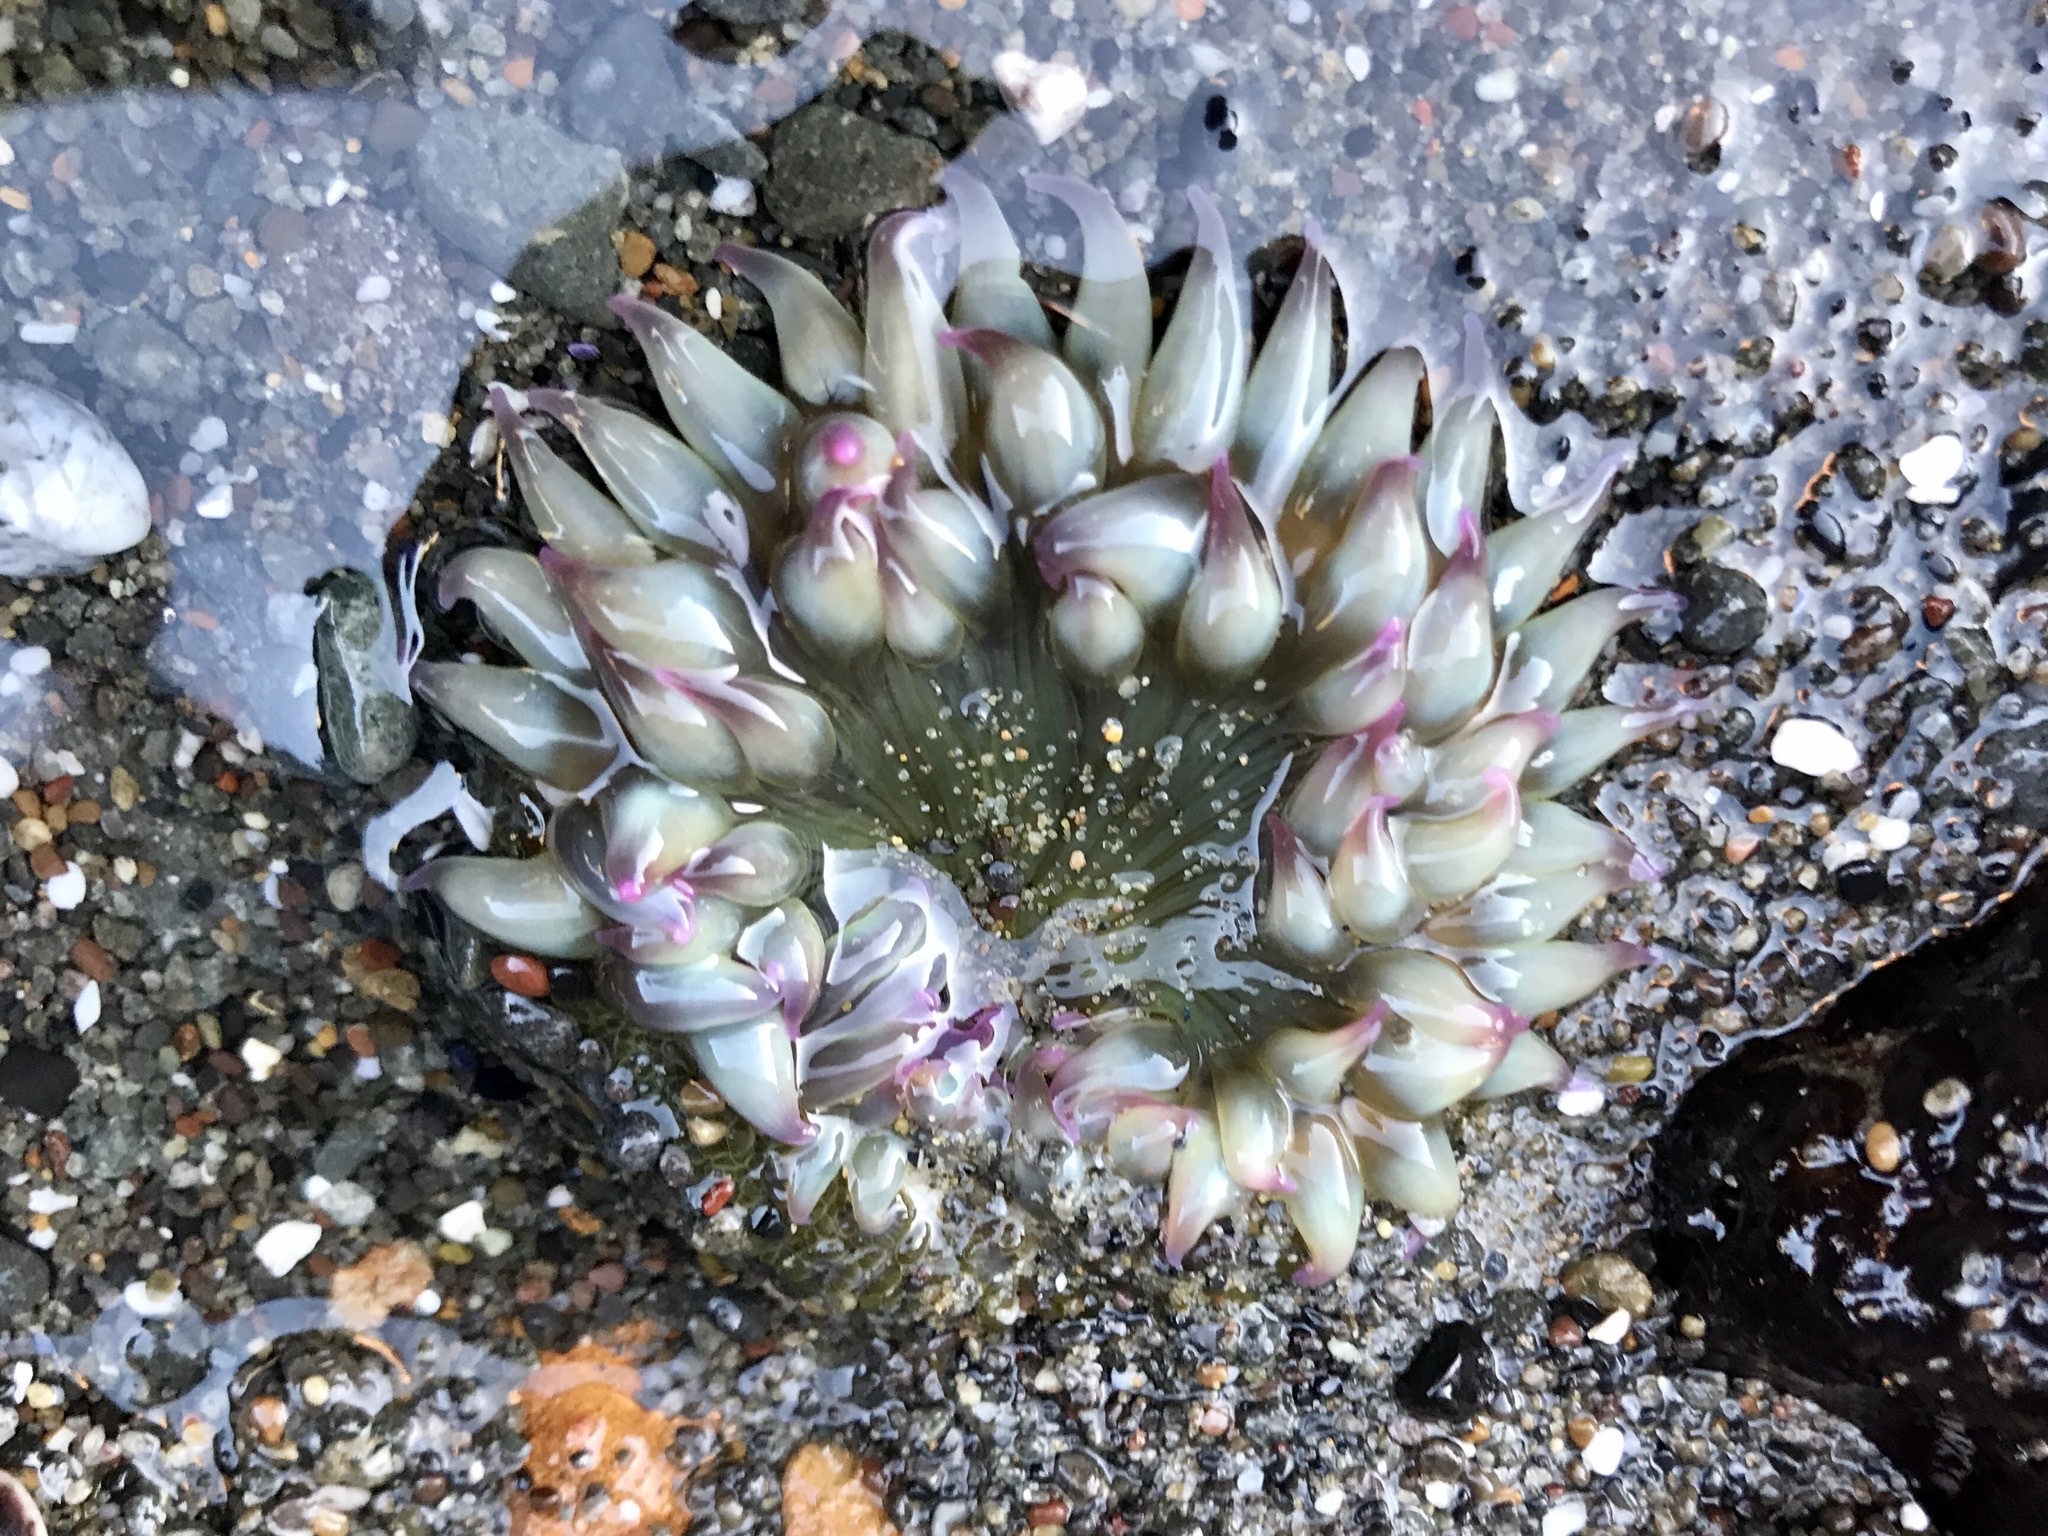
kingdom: Animalia
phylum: Cnidaria
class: Anthozoa
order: Actiniaria
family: Actiniidae
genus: Anthopleura
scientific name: Anthopleura elegantissima
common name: Clonal anemone
